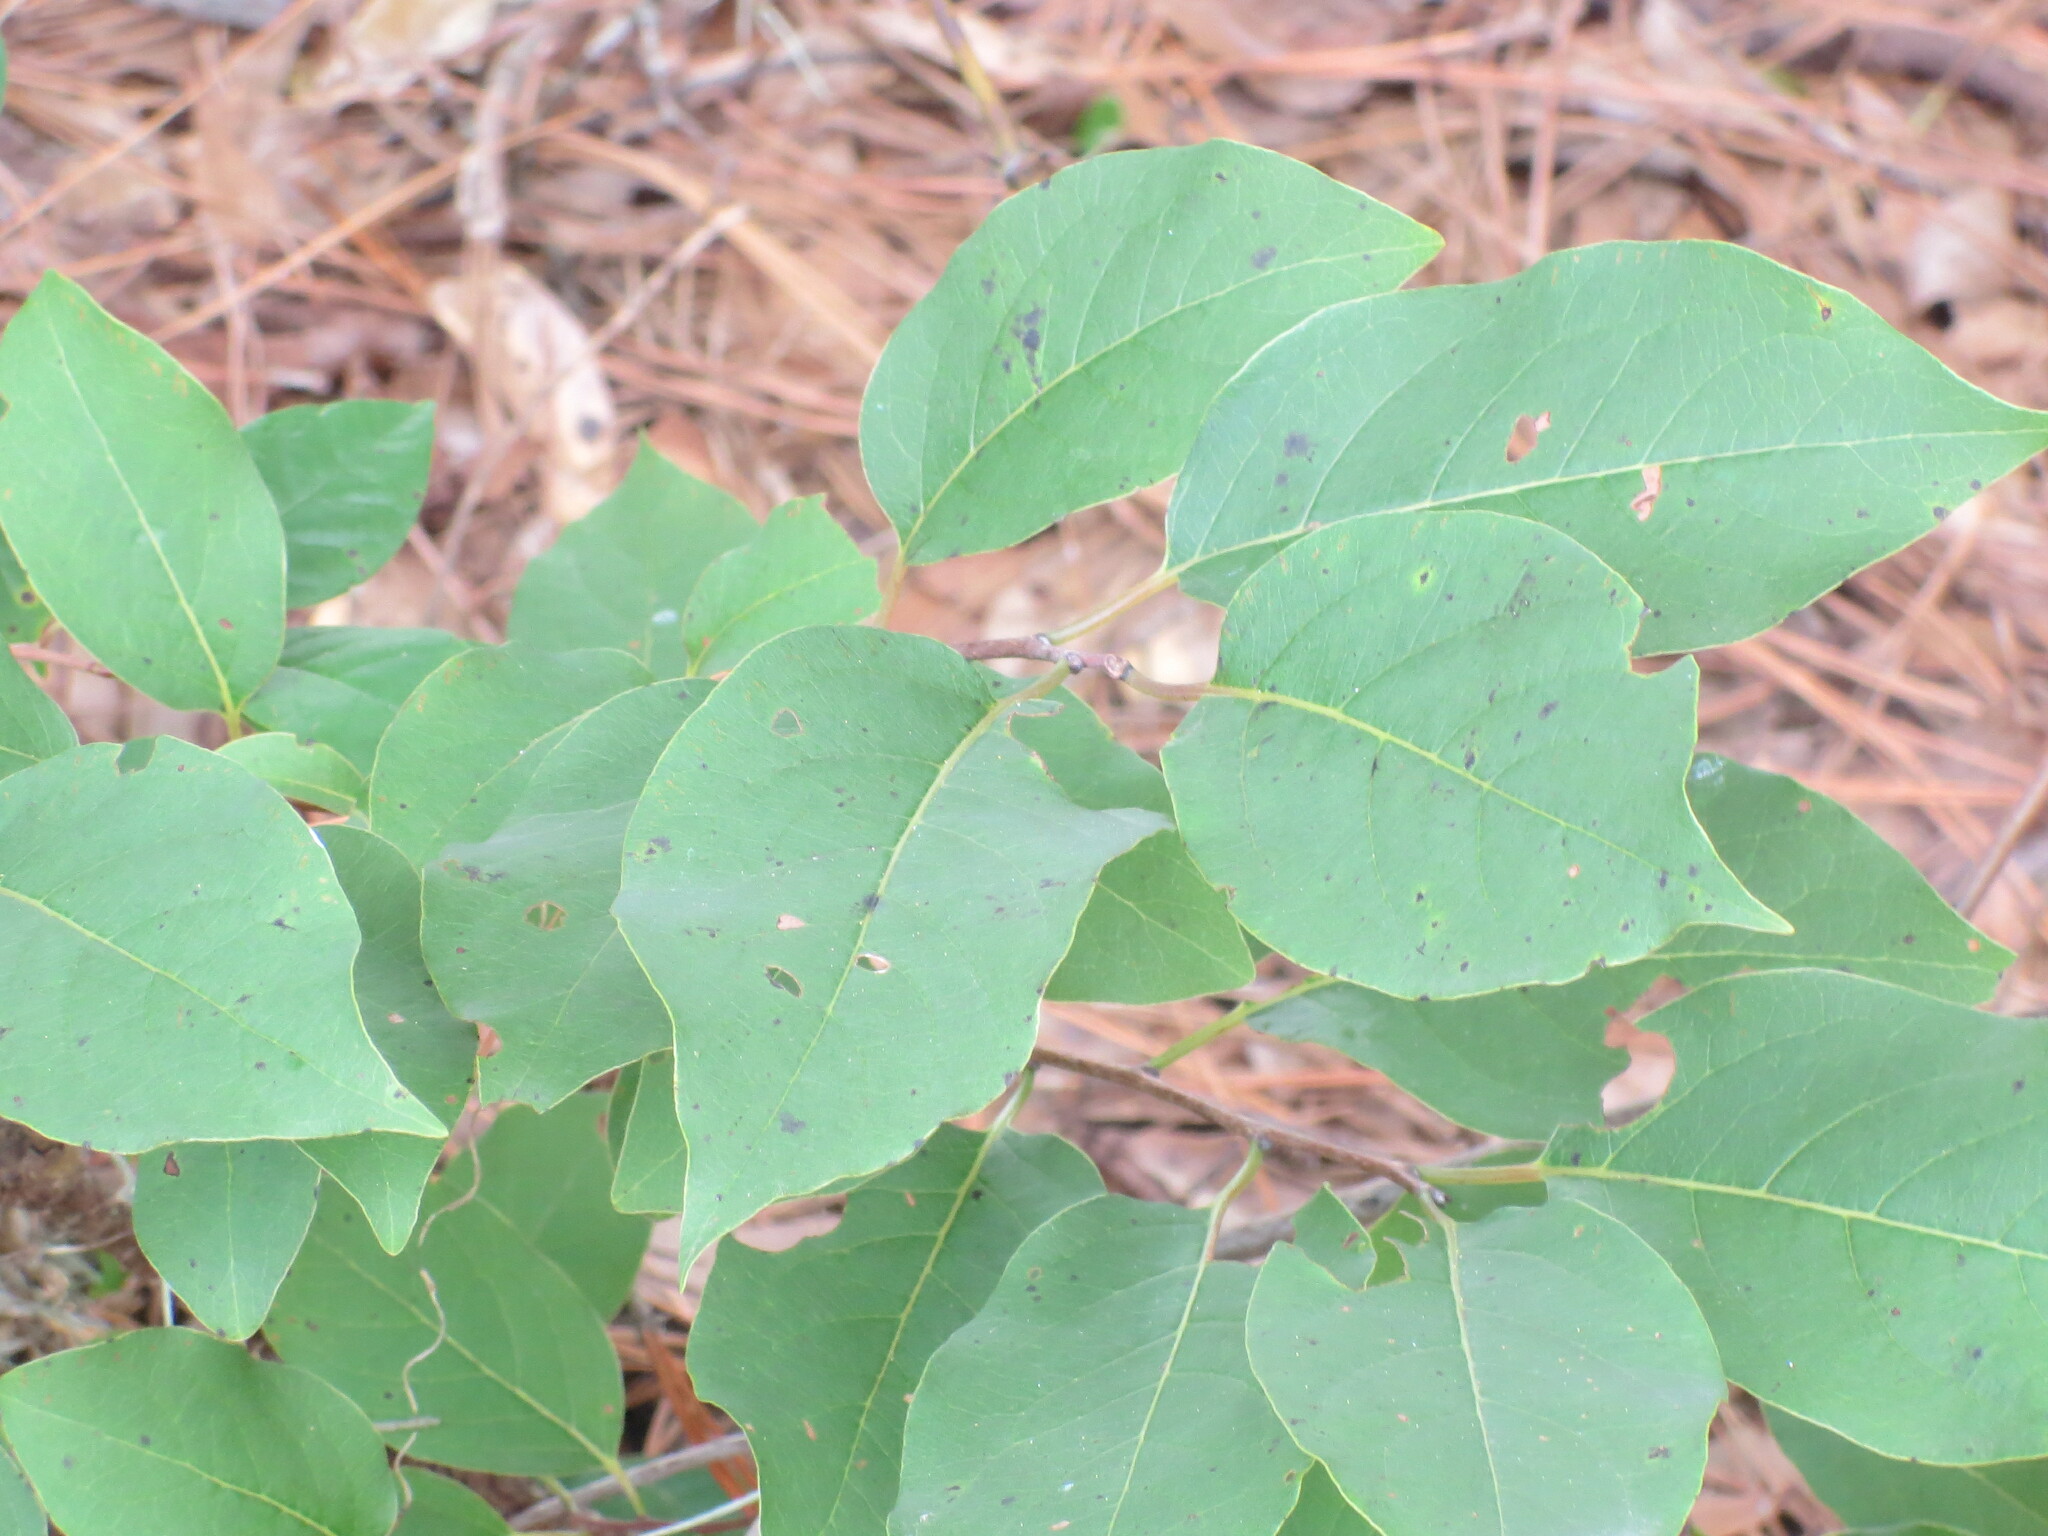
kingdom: Plantae
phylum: Tracheophyta
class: Magnoliopsida
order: Ericales
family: Ebenaceae
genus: Diospyros
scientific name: Diospyros virginiana
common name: Persimmon
